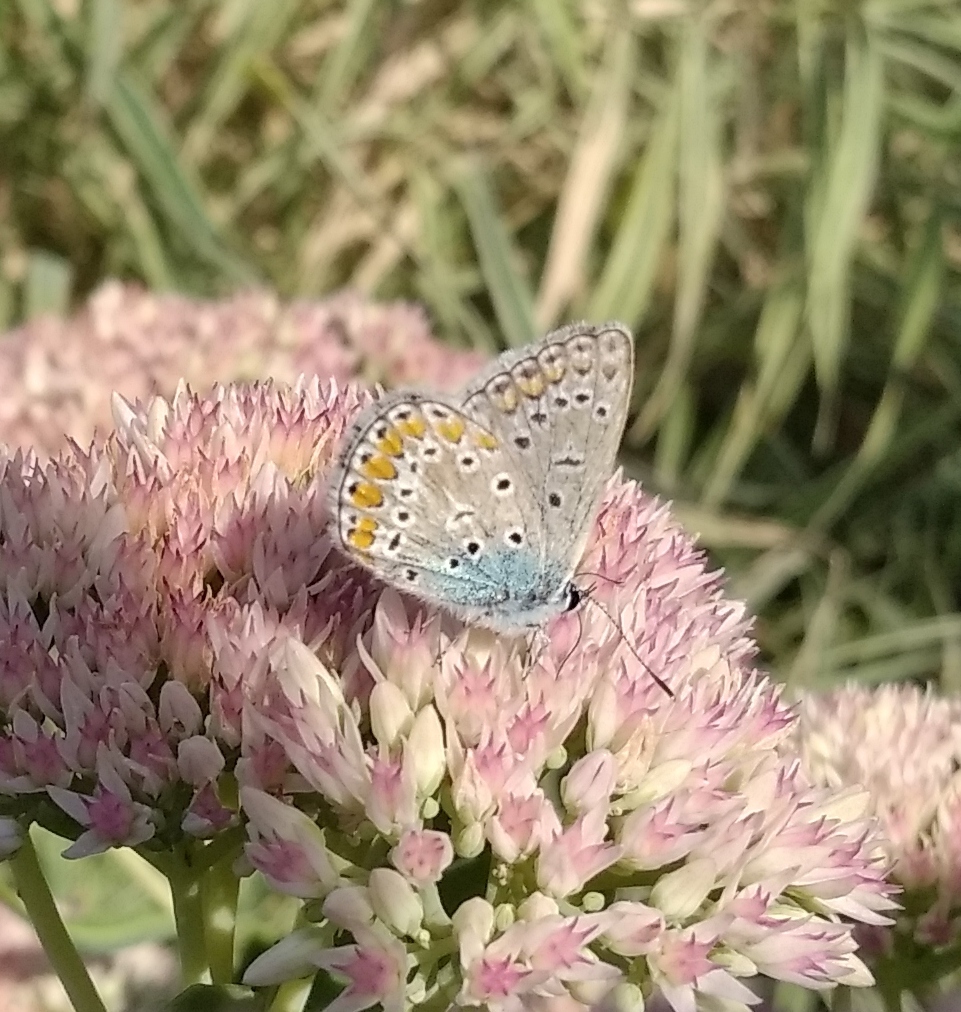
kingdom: Animalia
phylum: Arthropoda
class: Insecta
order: Lepidoptera
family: Lycaenidae
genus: Polyommatus
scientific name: Polyommatus icarus
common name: Common blue
